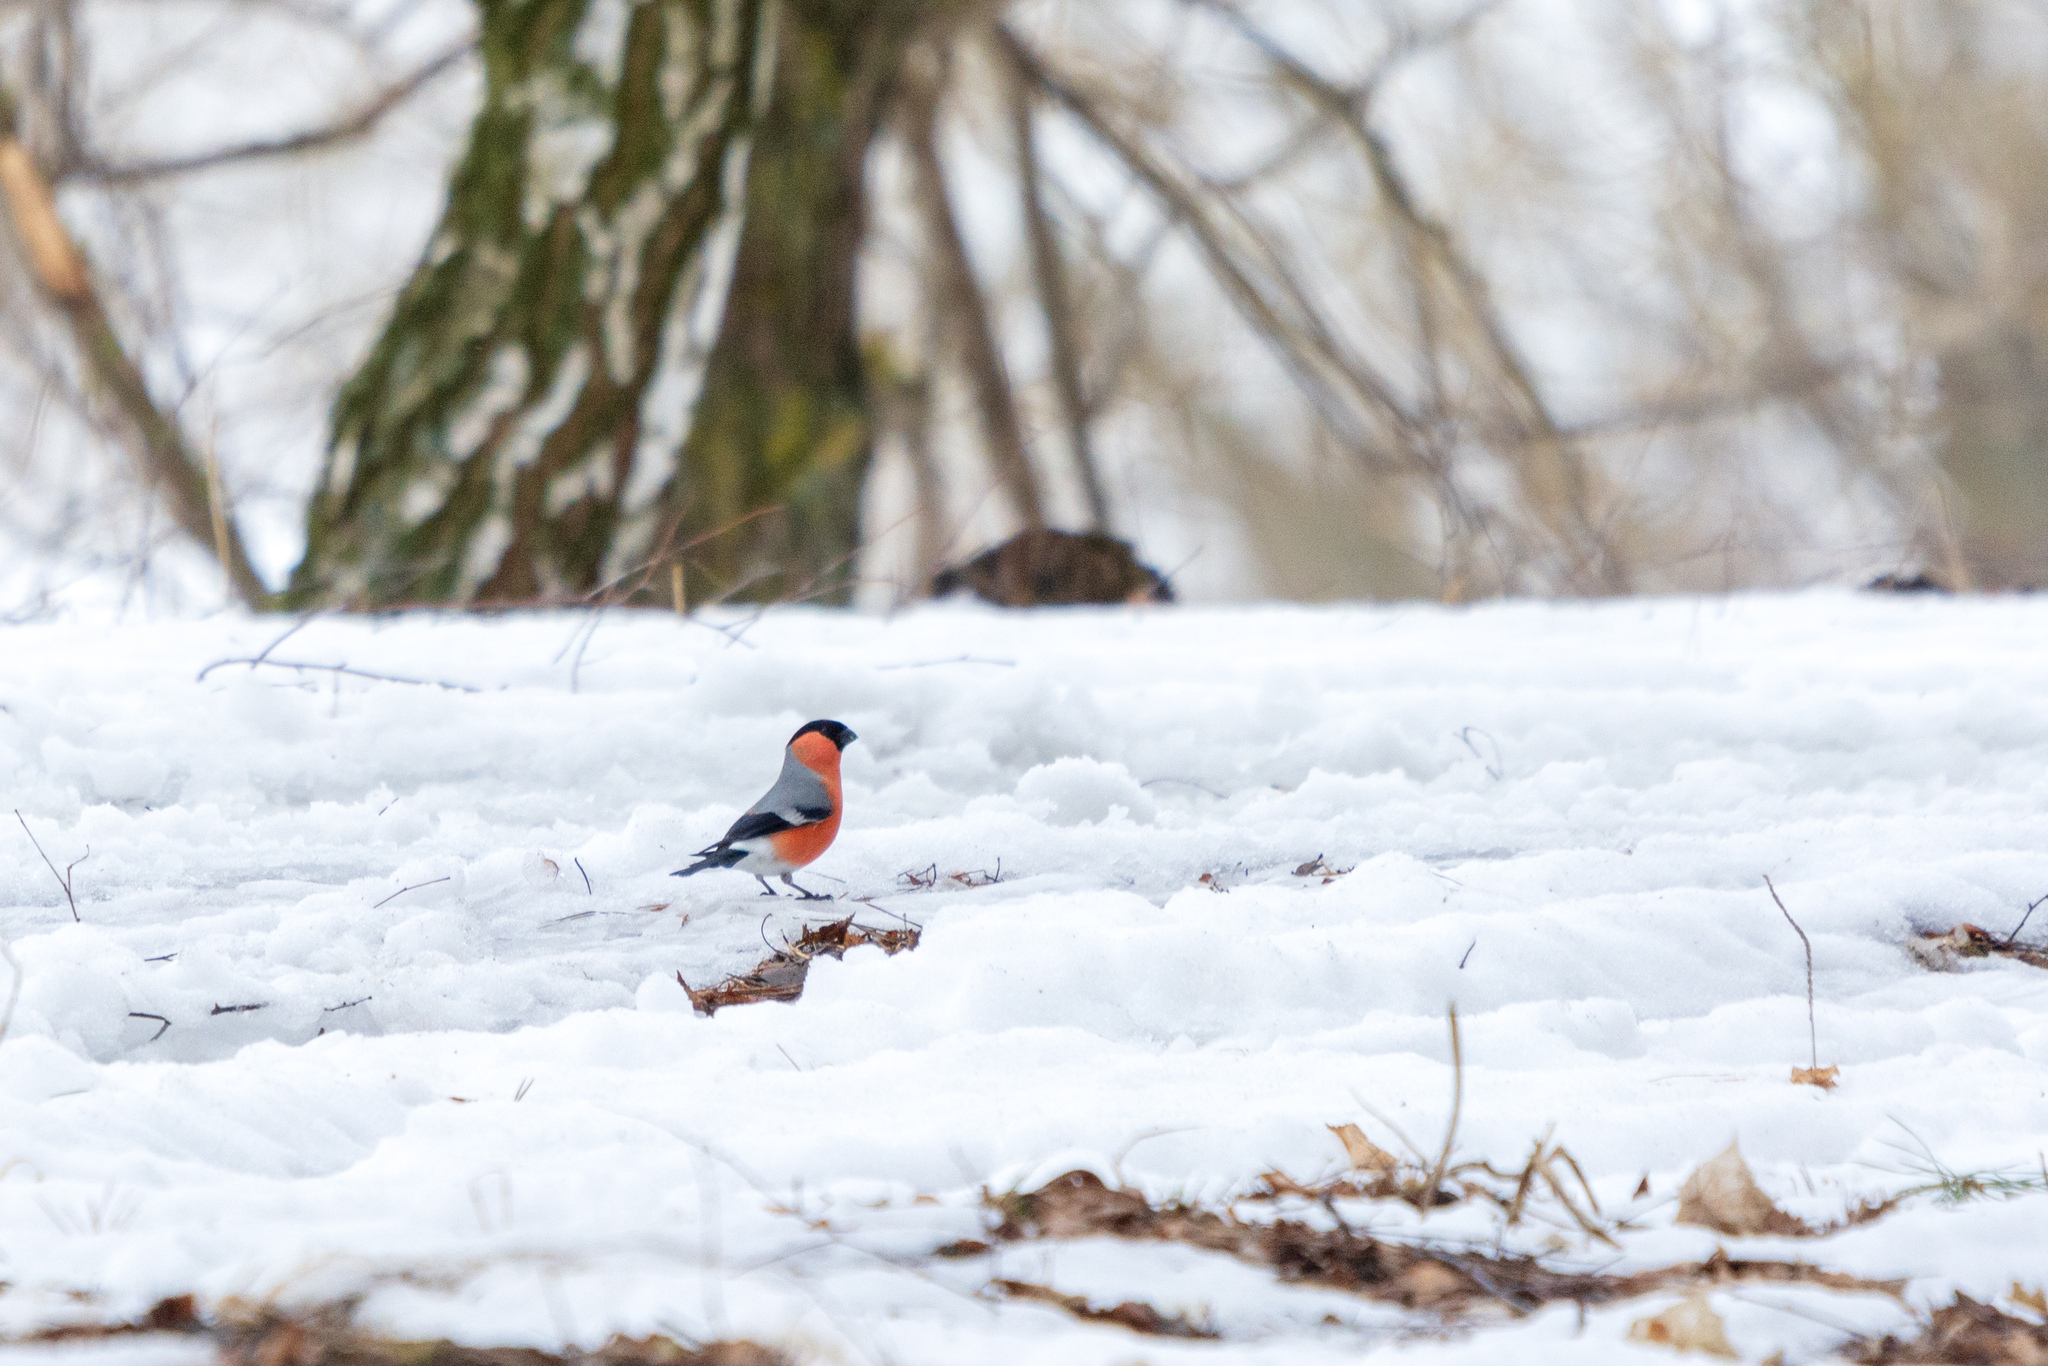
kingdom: Animalia
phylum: Chordata
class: Aves
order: Passeriformes
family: Fringillidae
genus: Pyrrhula
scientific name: Pyrrhula pyrrhula
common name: Eurasian bullfinch
